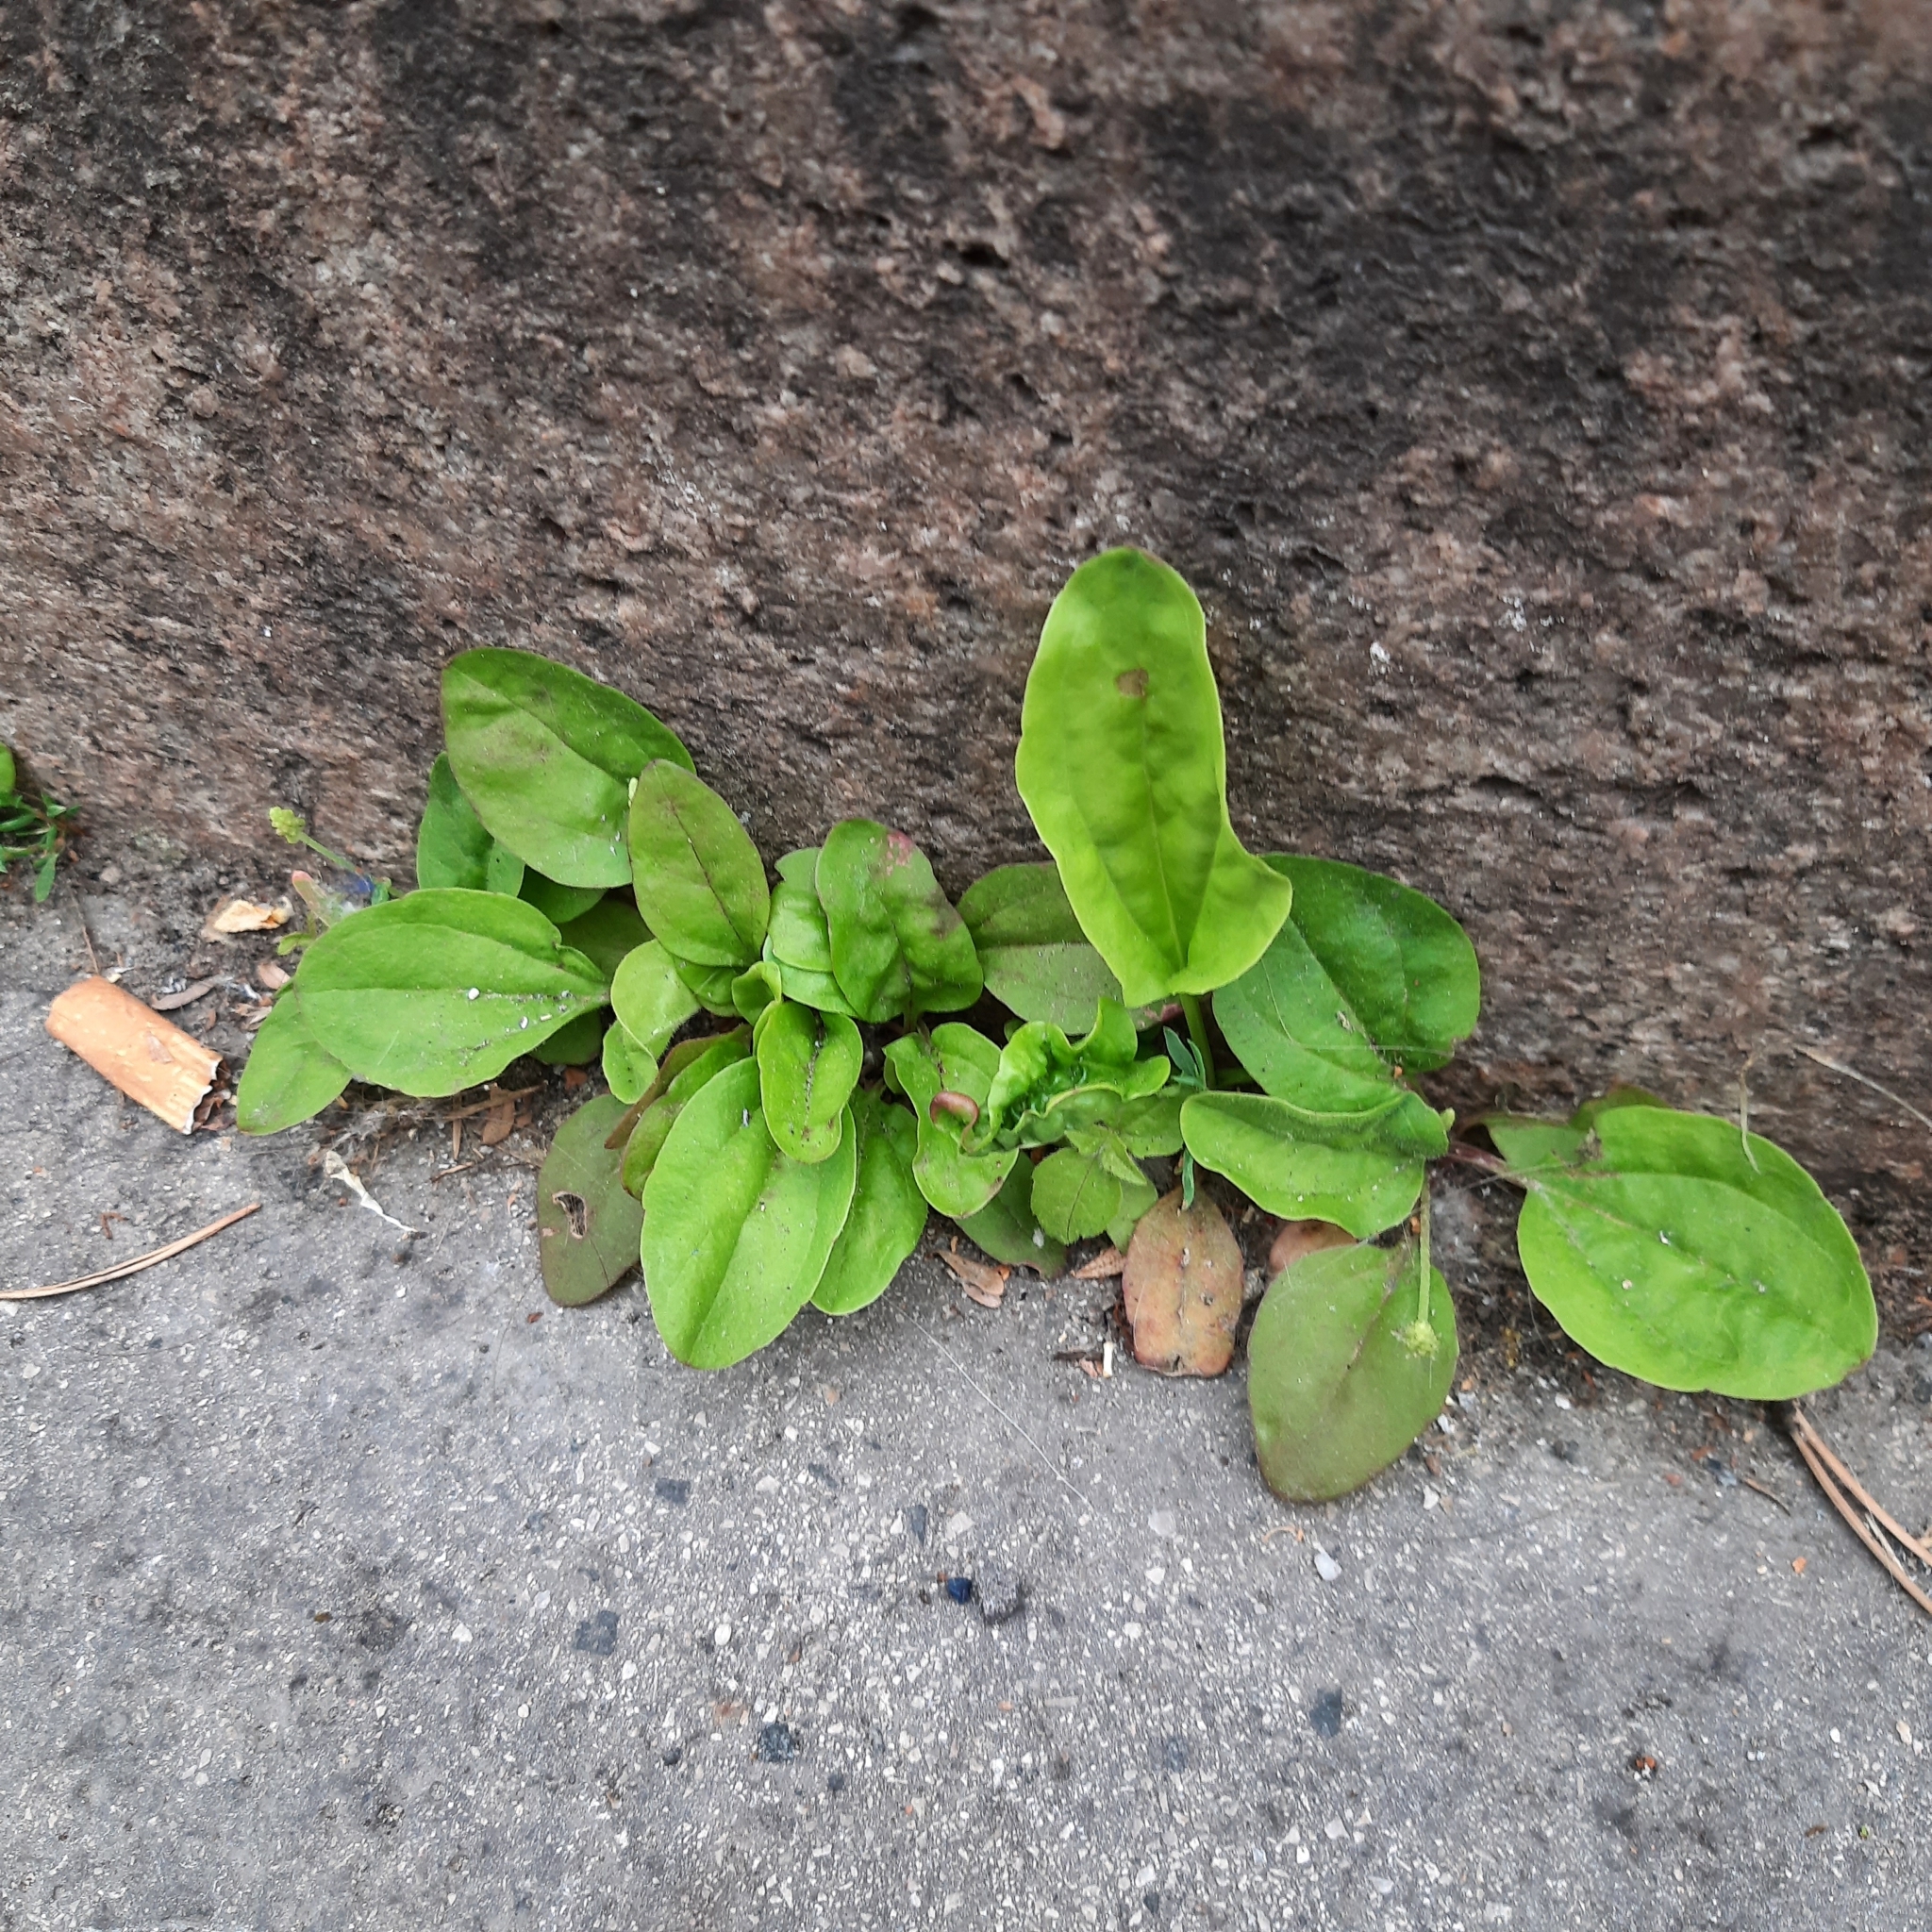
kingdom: Plantae
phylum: Tracheophyta
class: Magnoliopsida
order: Lamiales
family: Plantaginaceae
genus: Plantago
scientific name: Plantago major
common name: Common plantain
